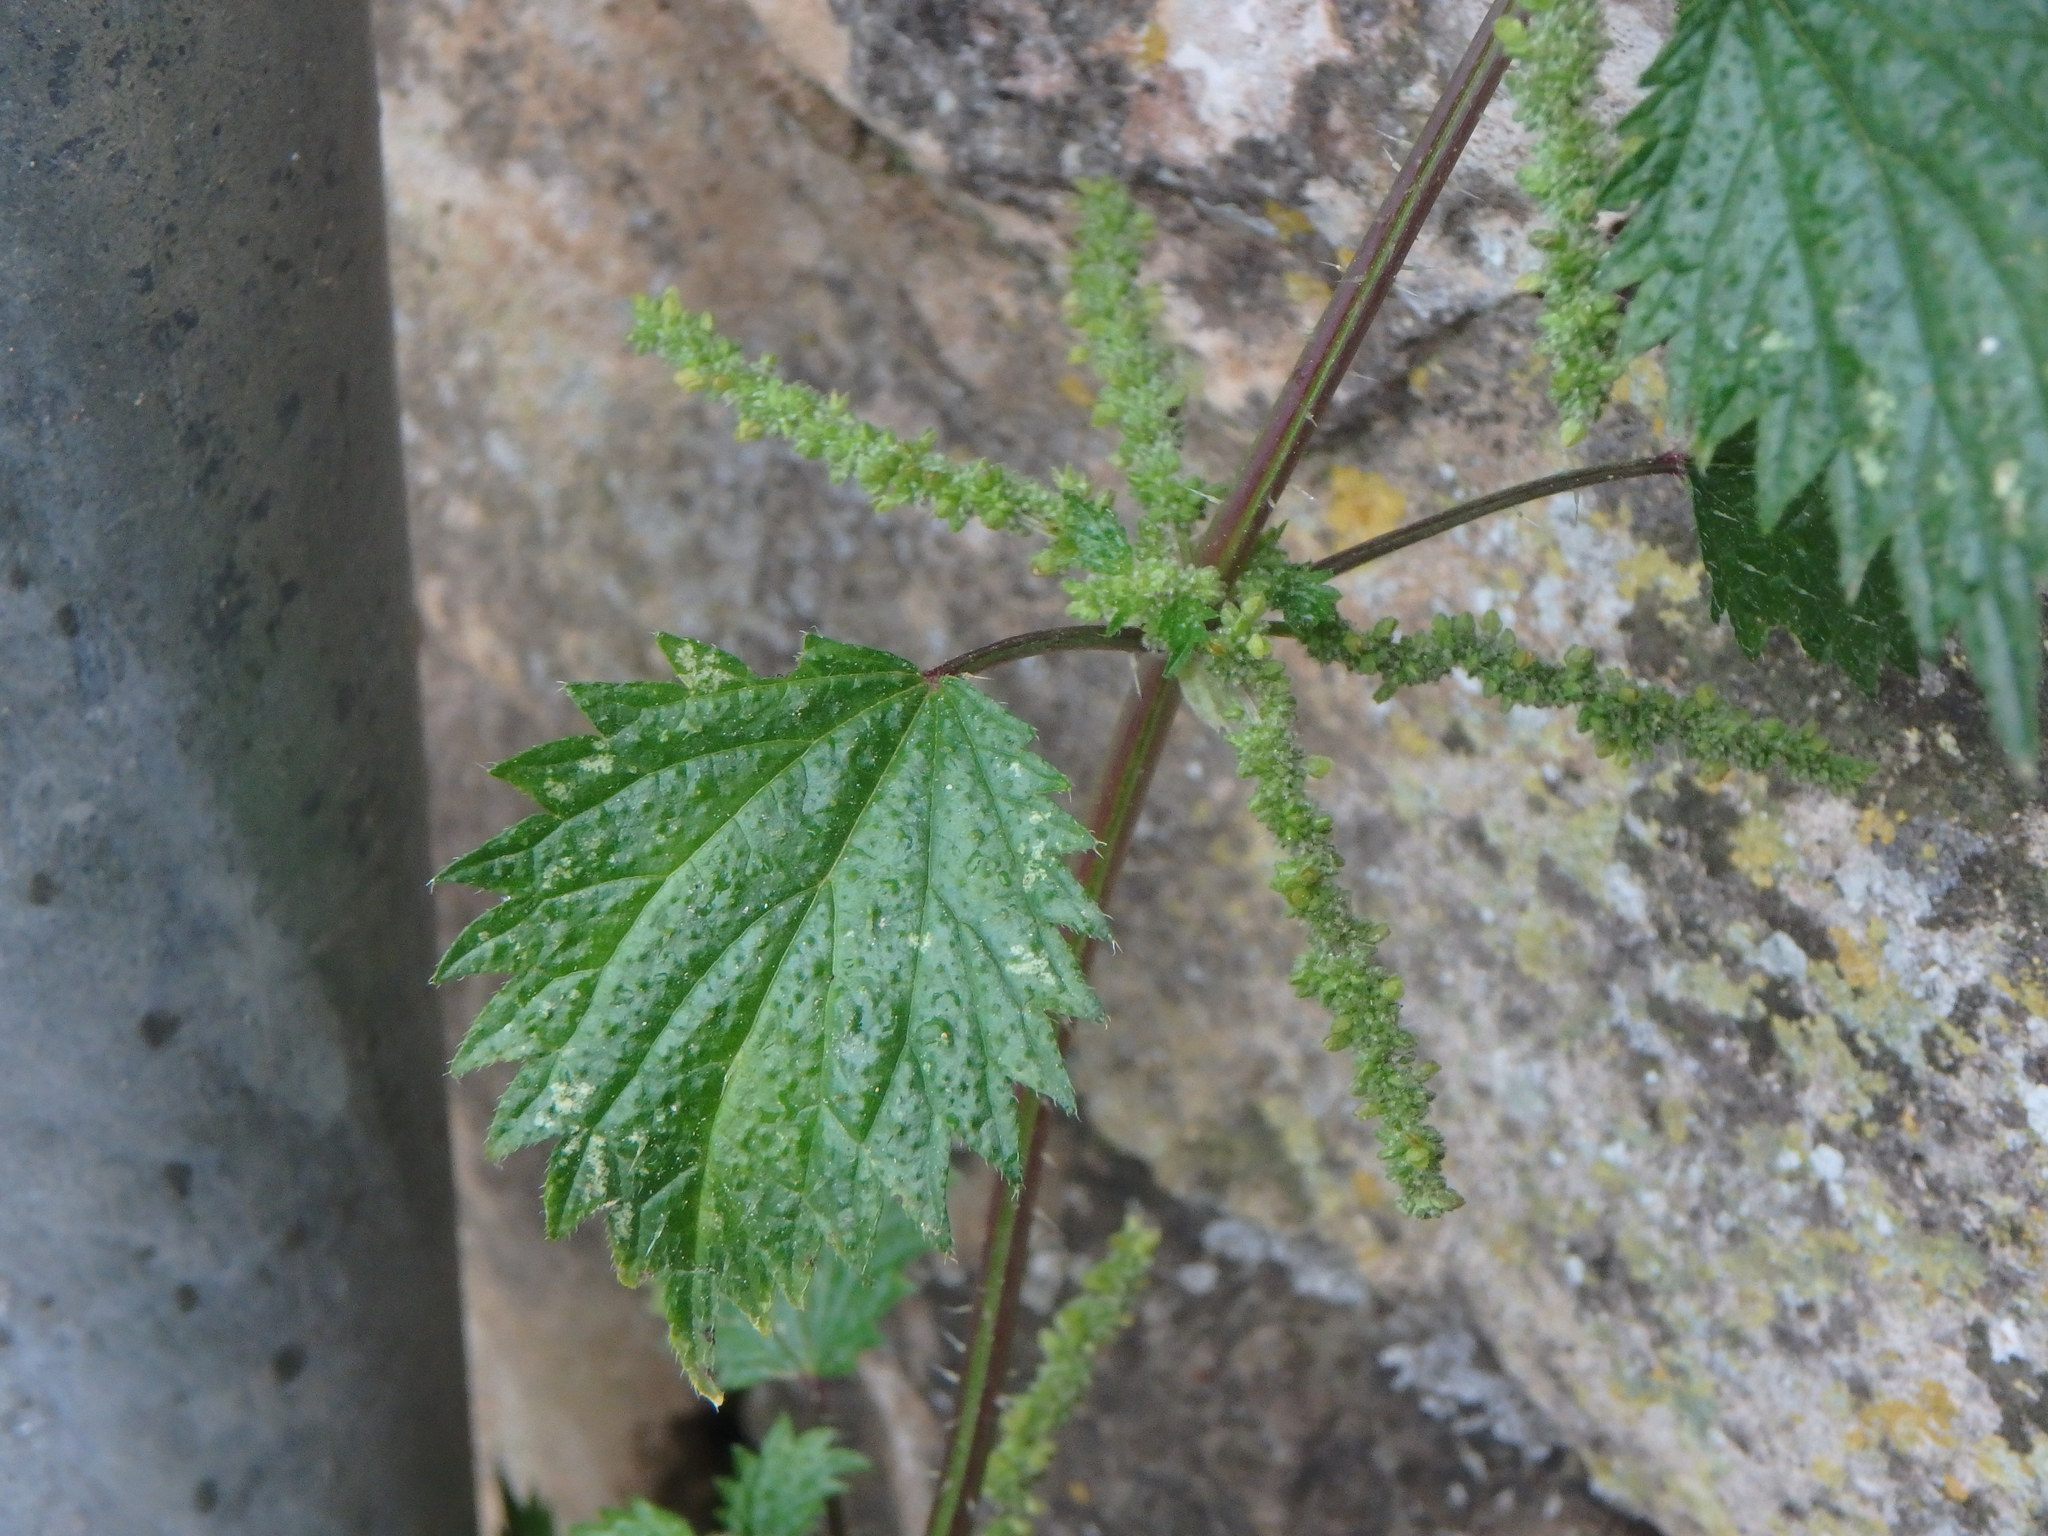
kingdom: Plantae
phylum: Tracheophyta
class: Magnoliopsida
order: Rosales
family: Urticaceae
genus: Urtica
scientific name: Urtica membranacea
